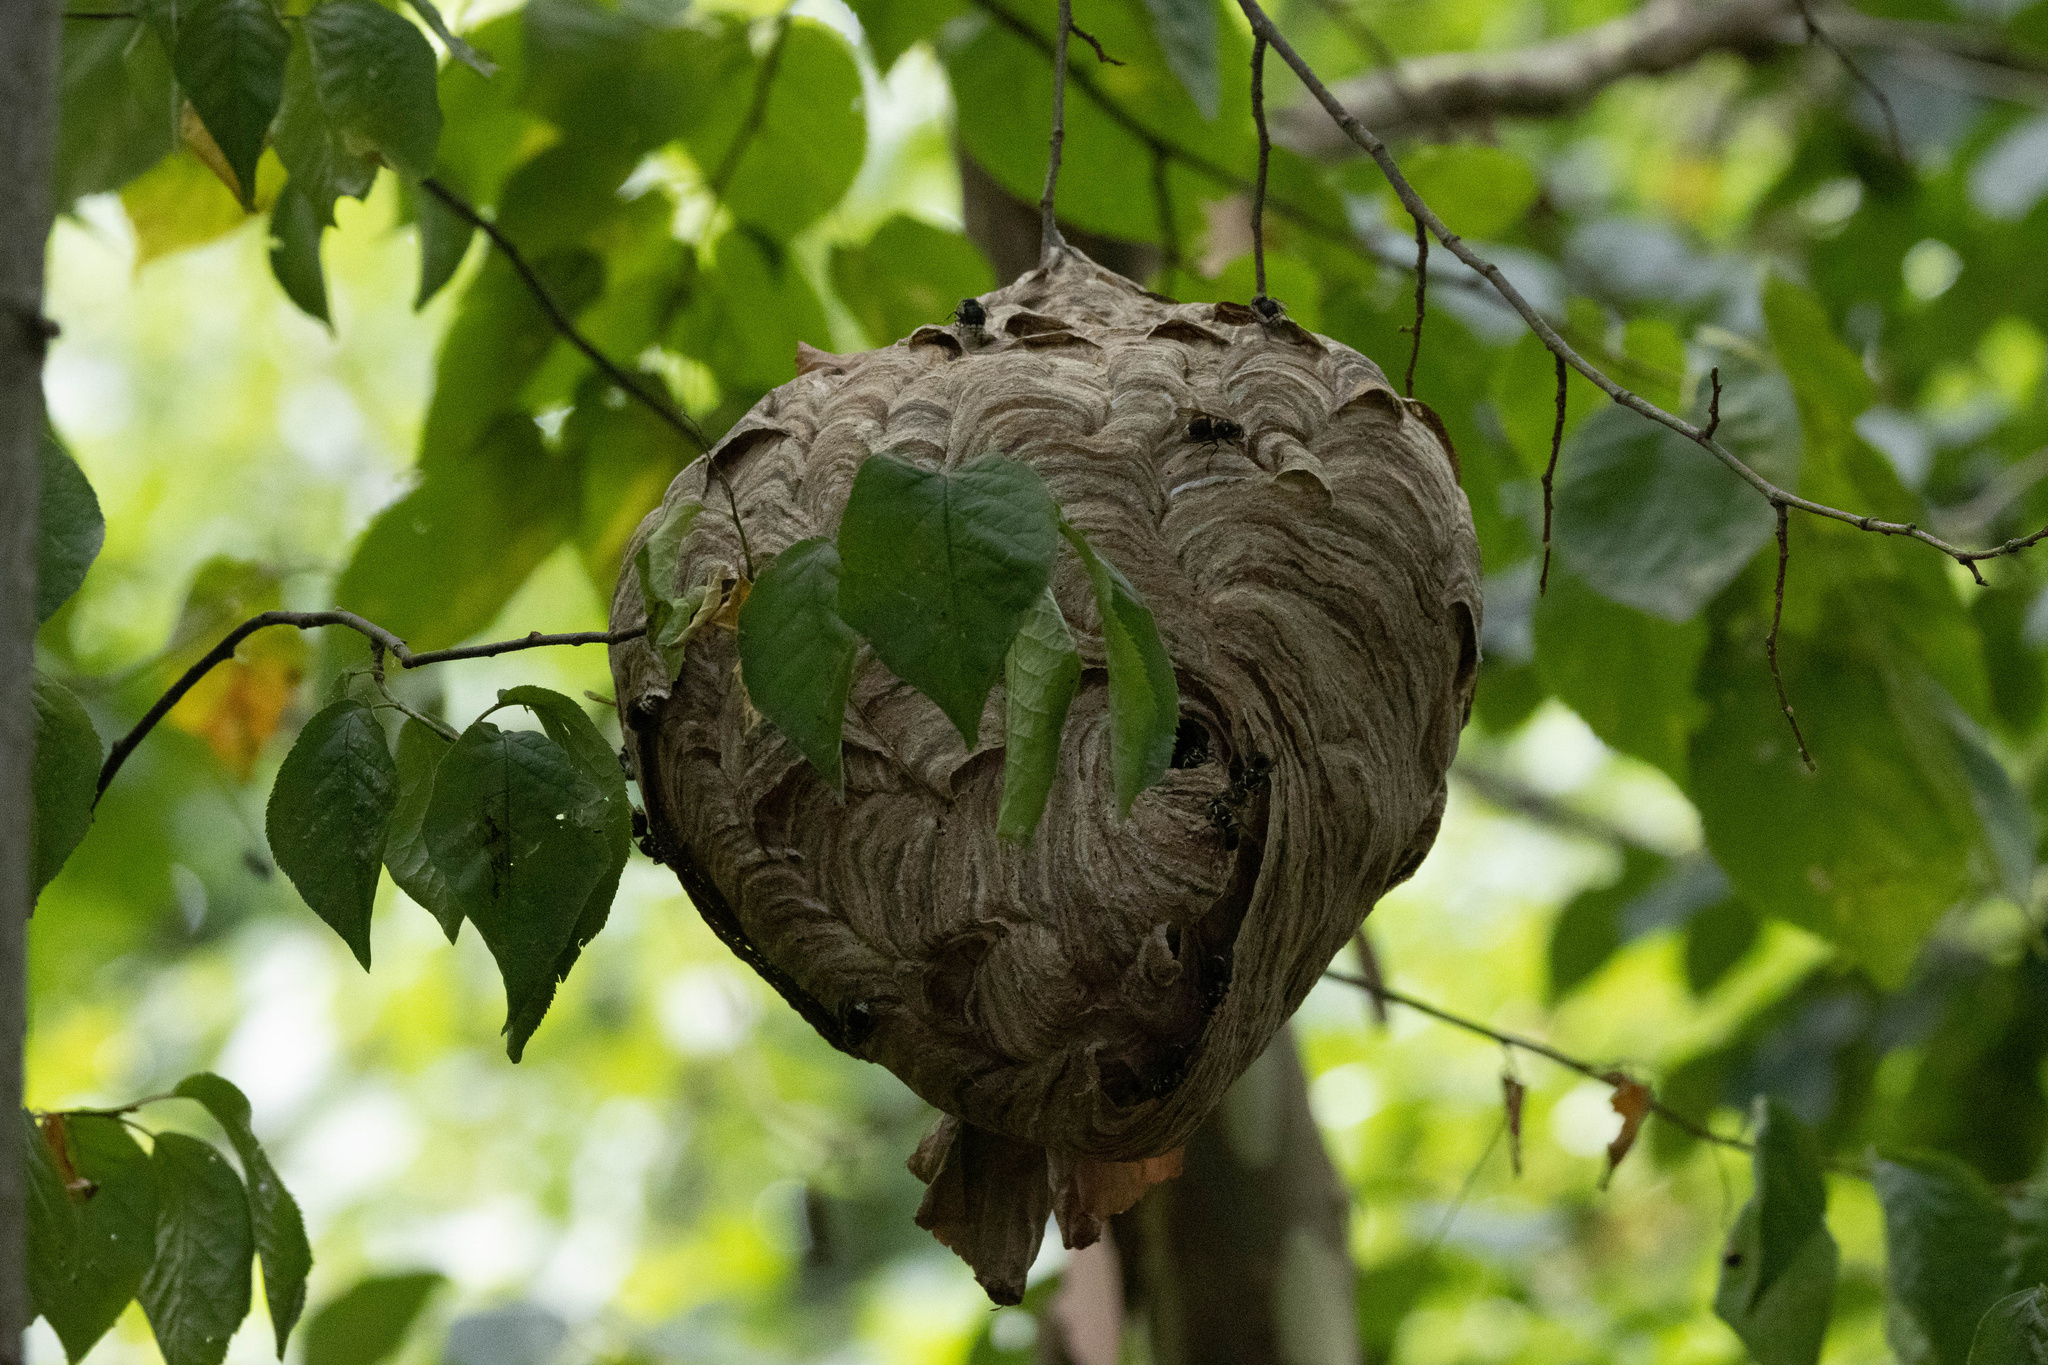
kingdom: Animalia
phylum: Arthropoda
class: Insecta
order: Hymenoptera
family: Vespidae
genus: Dolichovespula
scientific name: Dolichovespula maculata
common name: Bald-faced hornet
